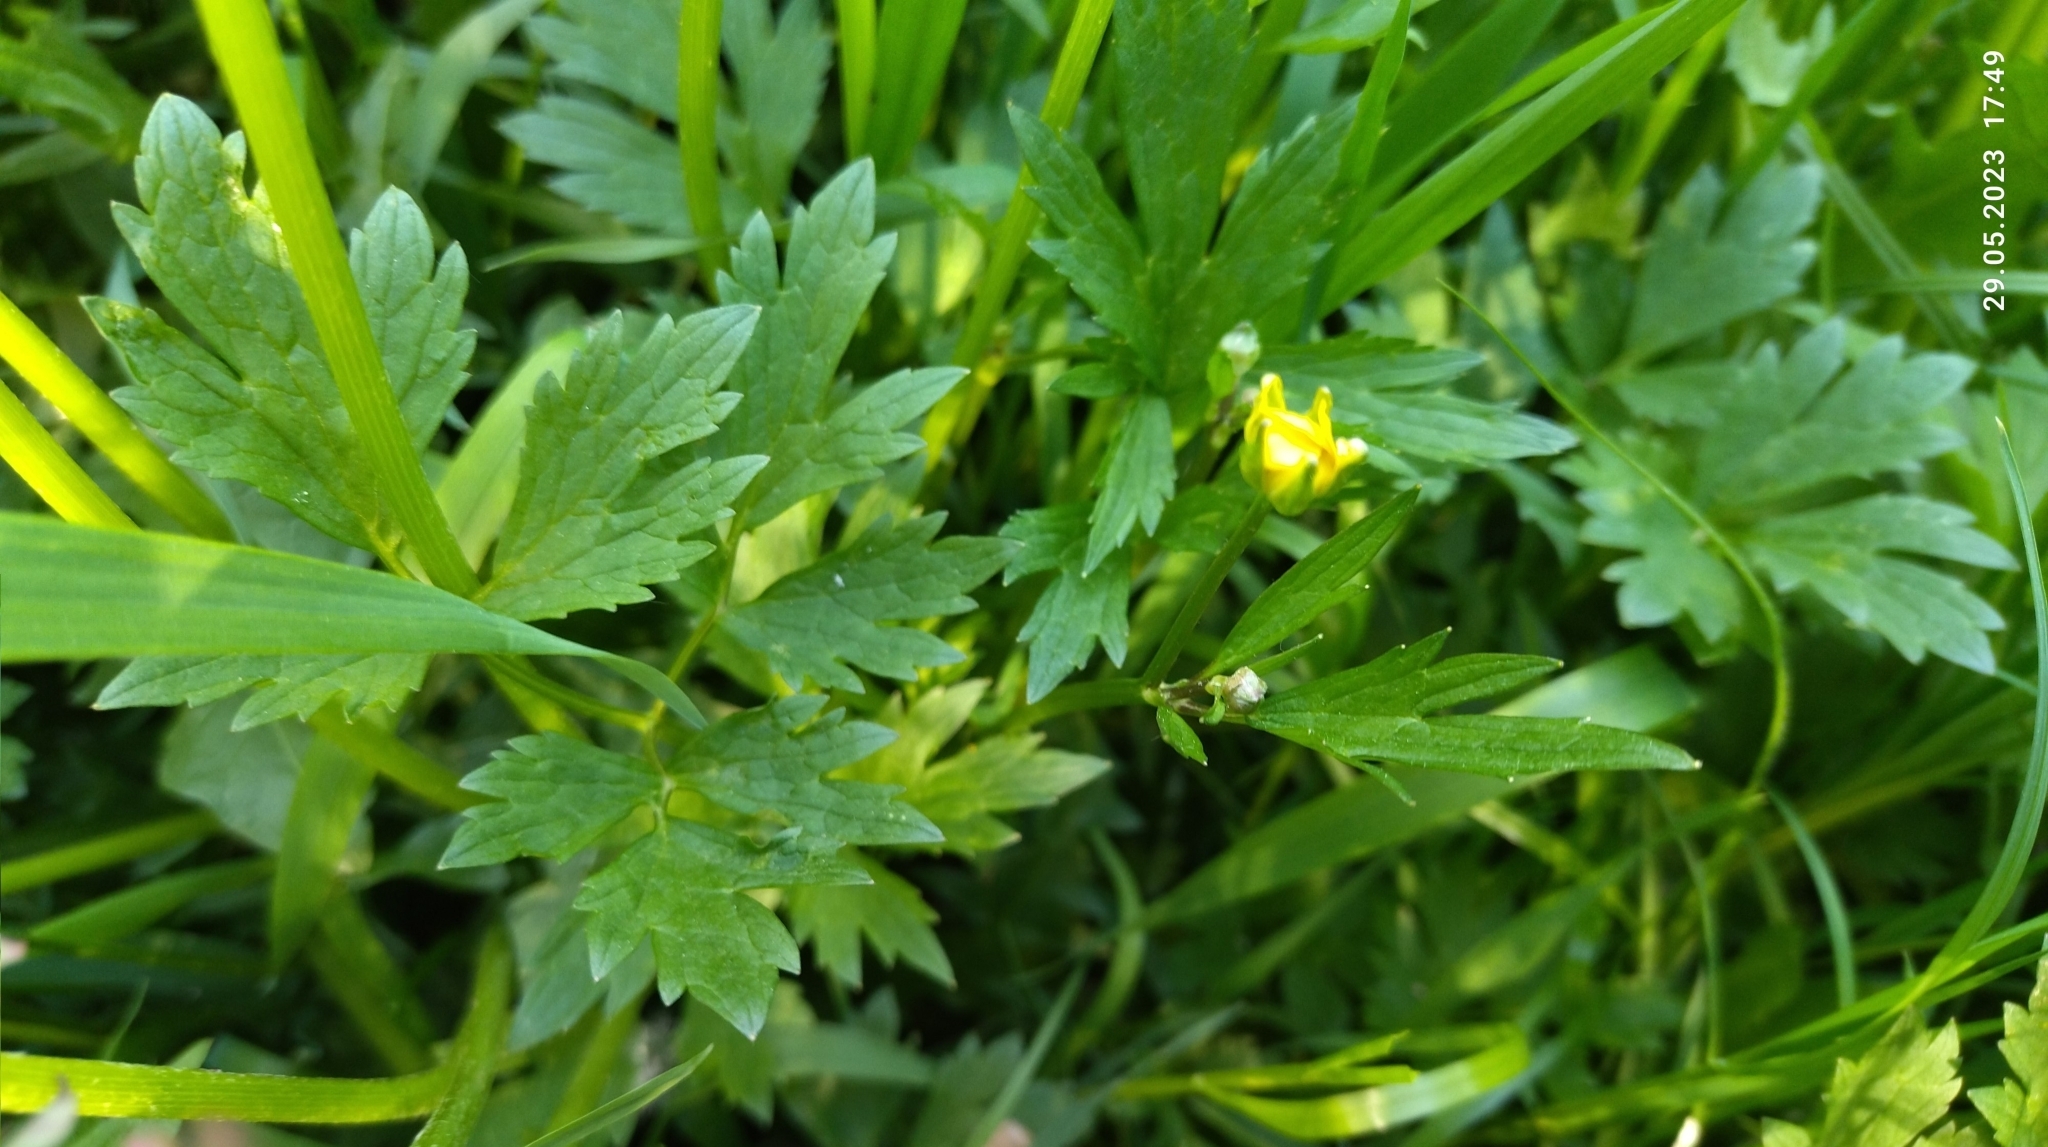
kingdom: Plantae
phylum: Tracheophyta
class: Magnoliopsida
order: Ranunculales
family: Ranunculaceae
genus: Ranunculus
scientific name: Ranunculus repens
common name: Creeping buttercup
